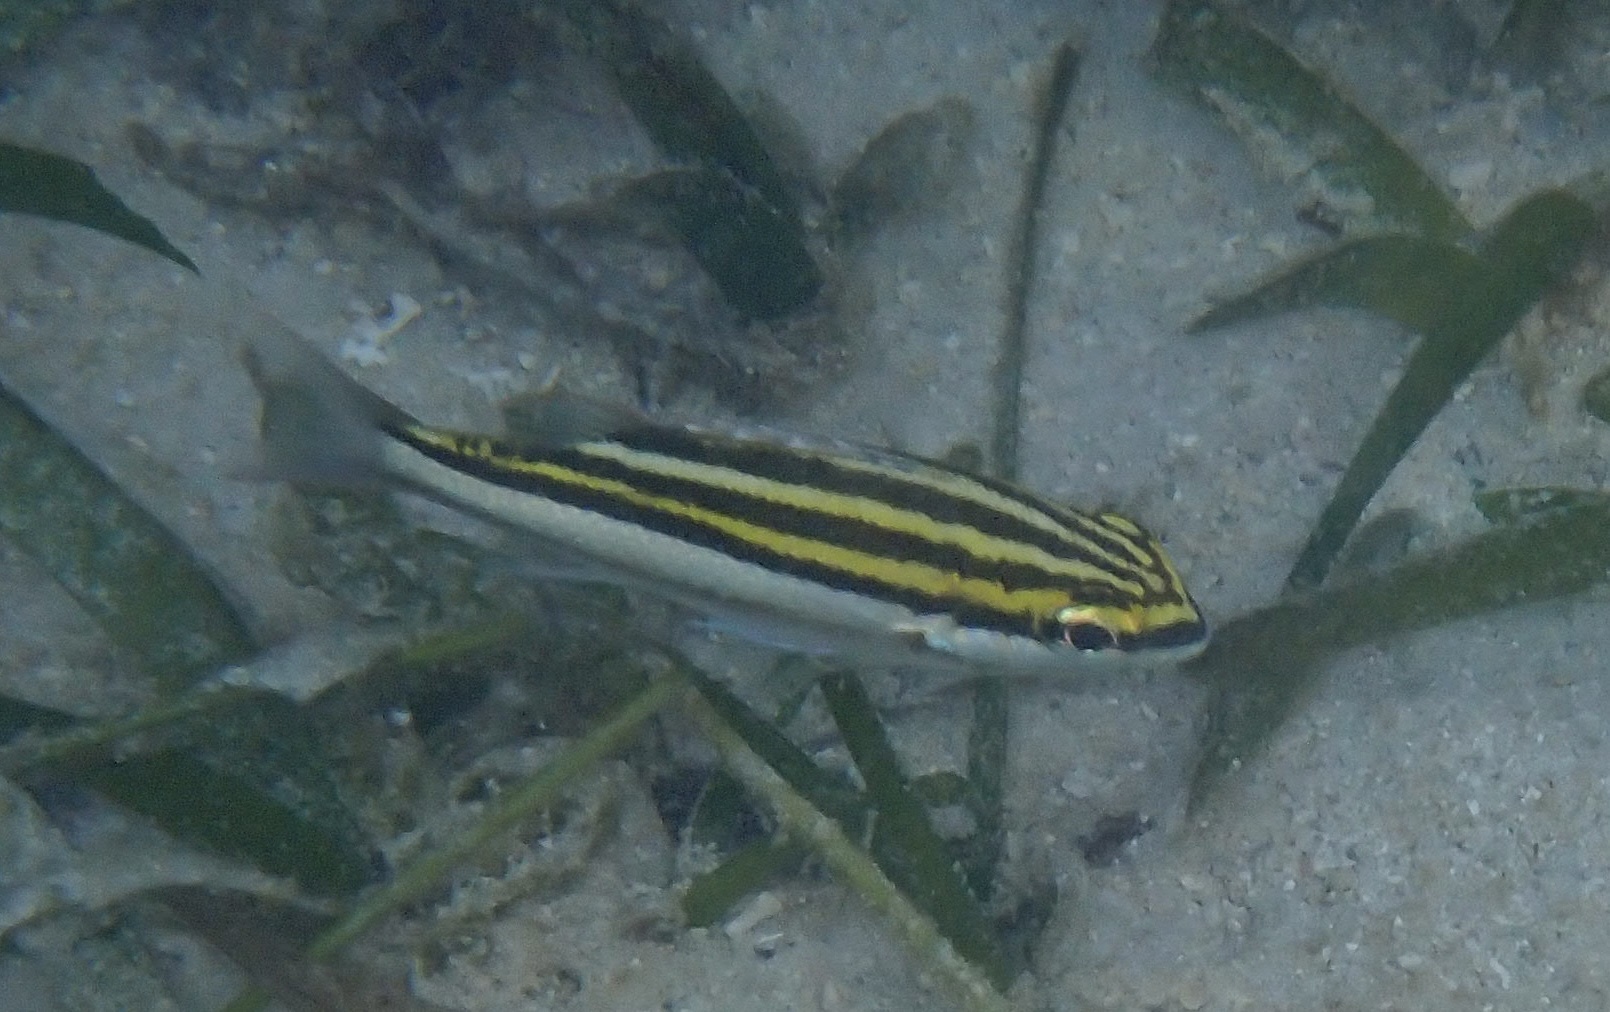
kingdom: Animalia
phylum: Chordata
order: Perciformes
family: Nemipteridae
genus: Scolopsis
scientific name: Scolopsis bilineata
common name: Two-lined monocle bream
